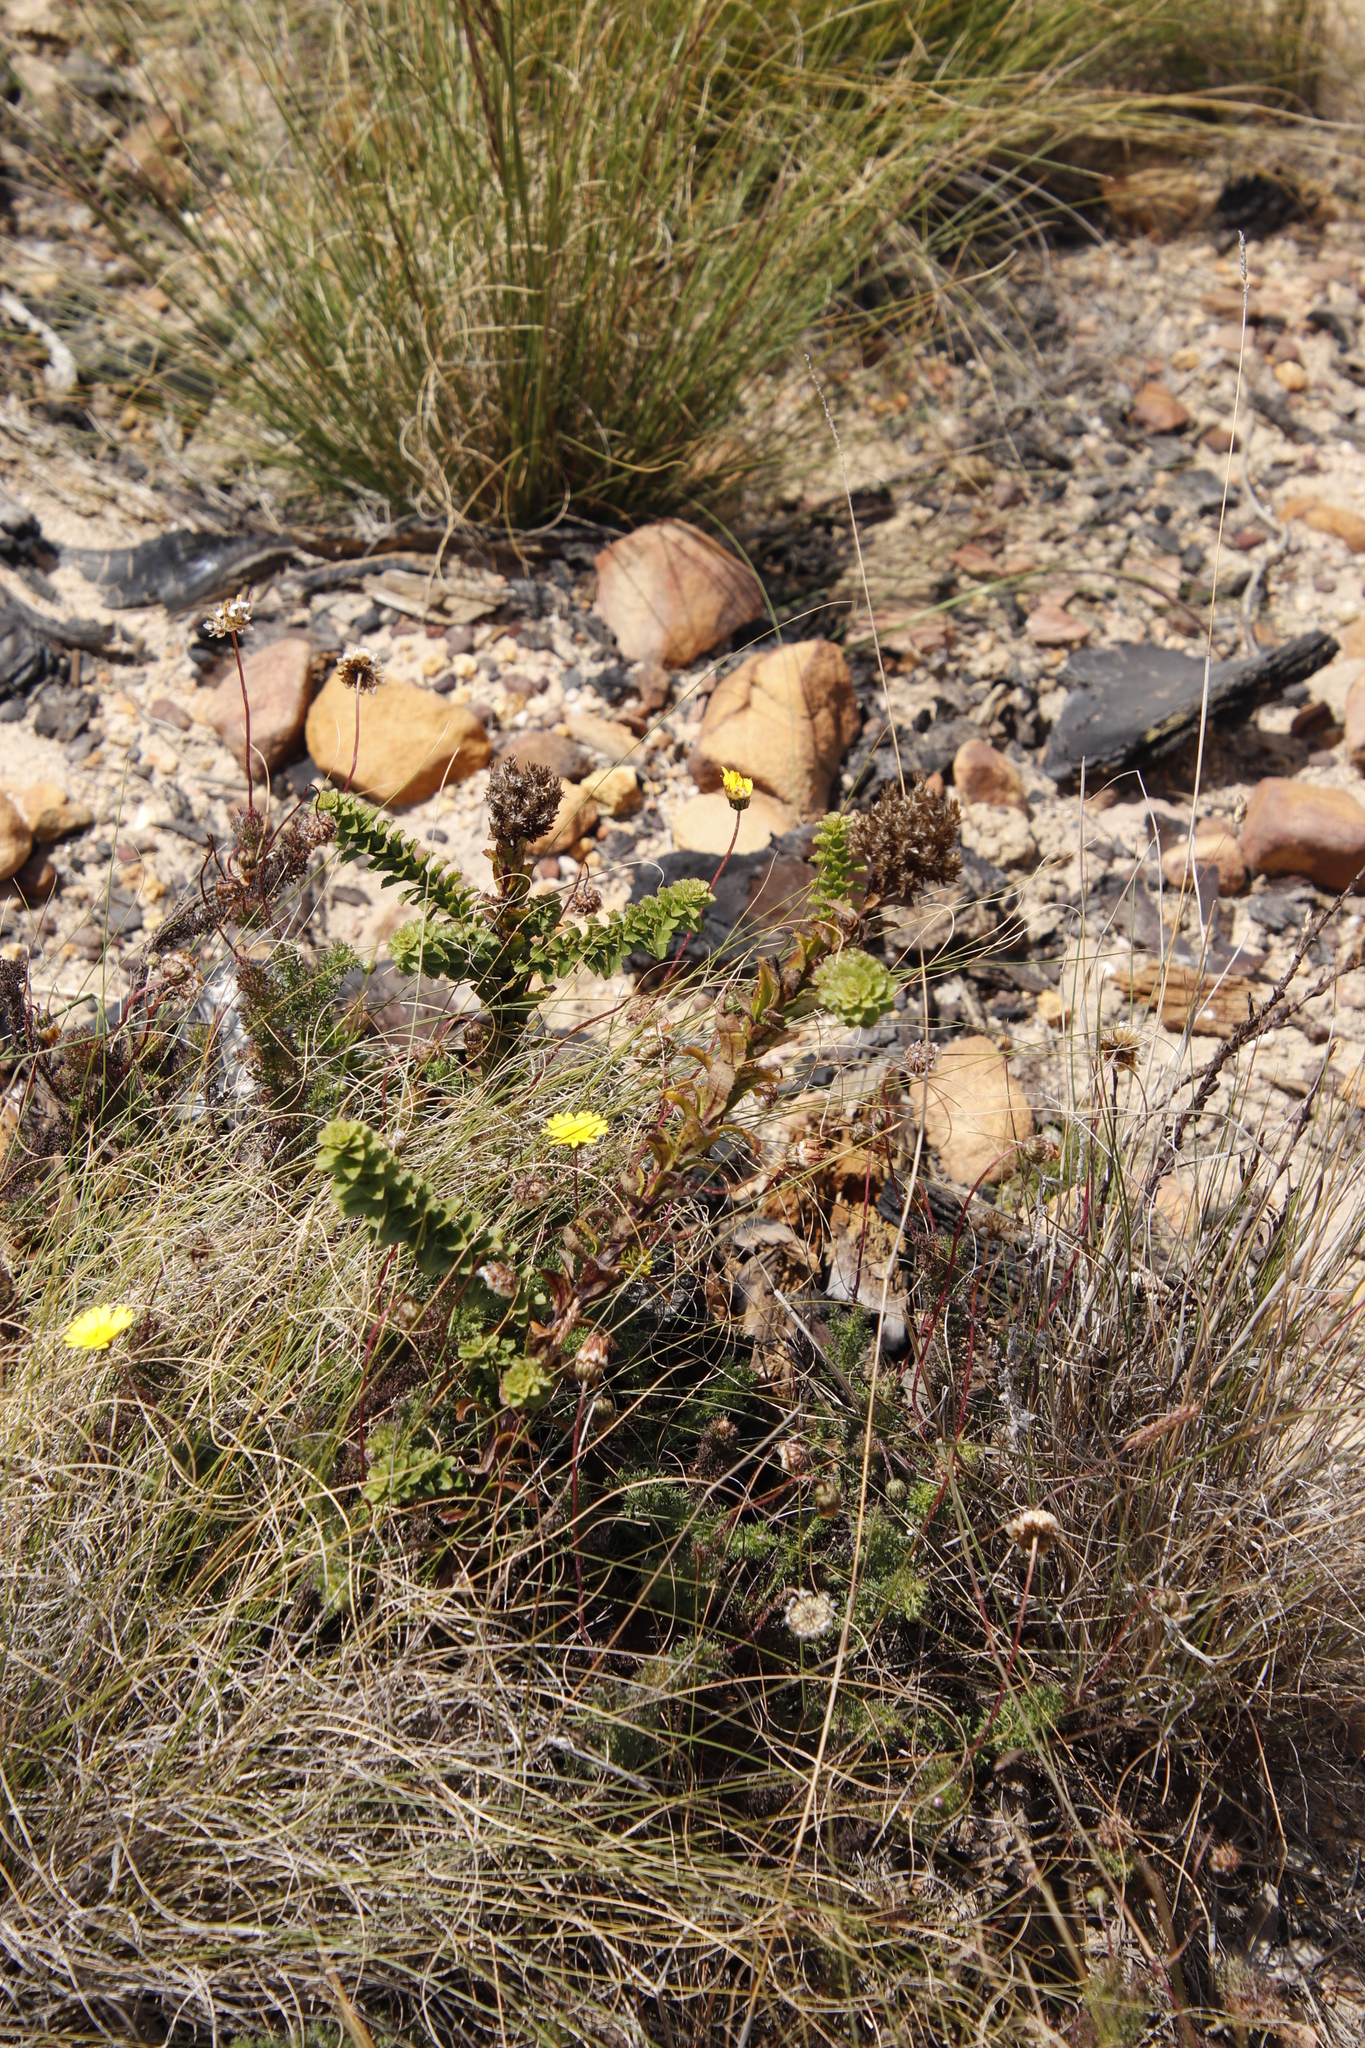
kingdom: Plantae
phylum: Tracheophyta
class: Magnoliopsida
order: Lamiales
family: Scrophulariaceae
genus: Pseudoselago
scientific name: Pseudoselago serrata
